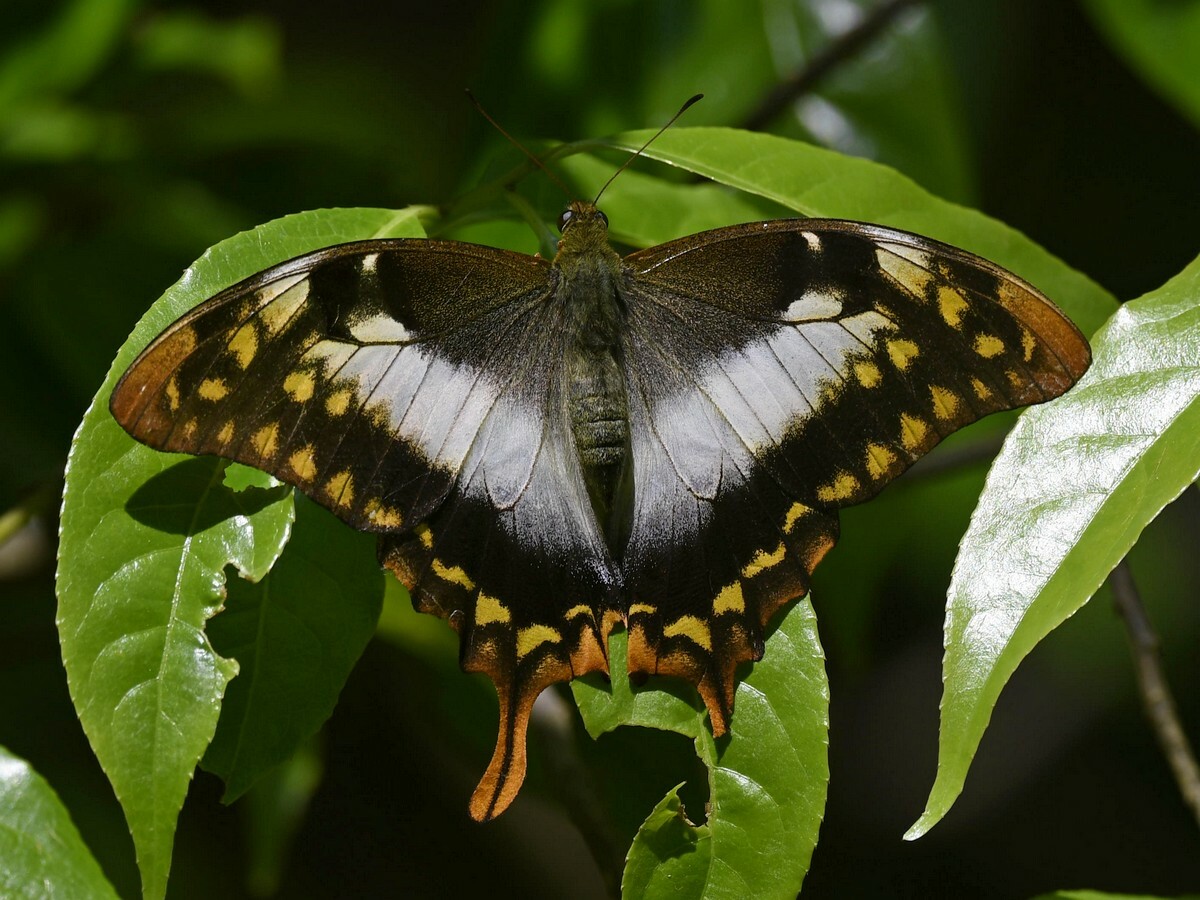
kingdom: Animalia
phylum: Arthropoda
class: Insecta
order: Lepidoptera
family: Papilionidae
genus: Meandrusa
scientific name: Meandrusa lachinus
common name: Brown gorgon
